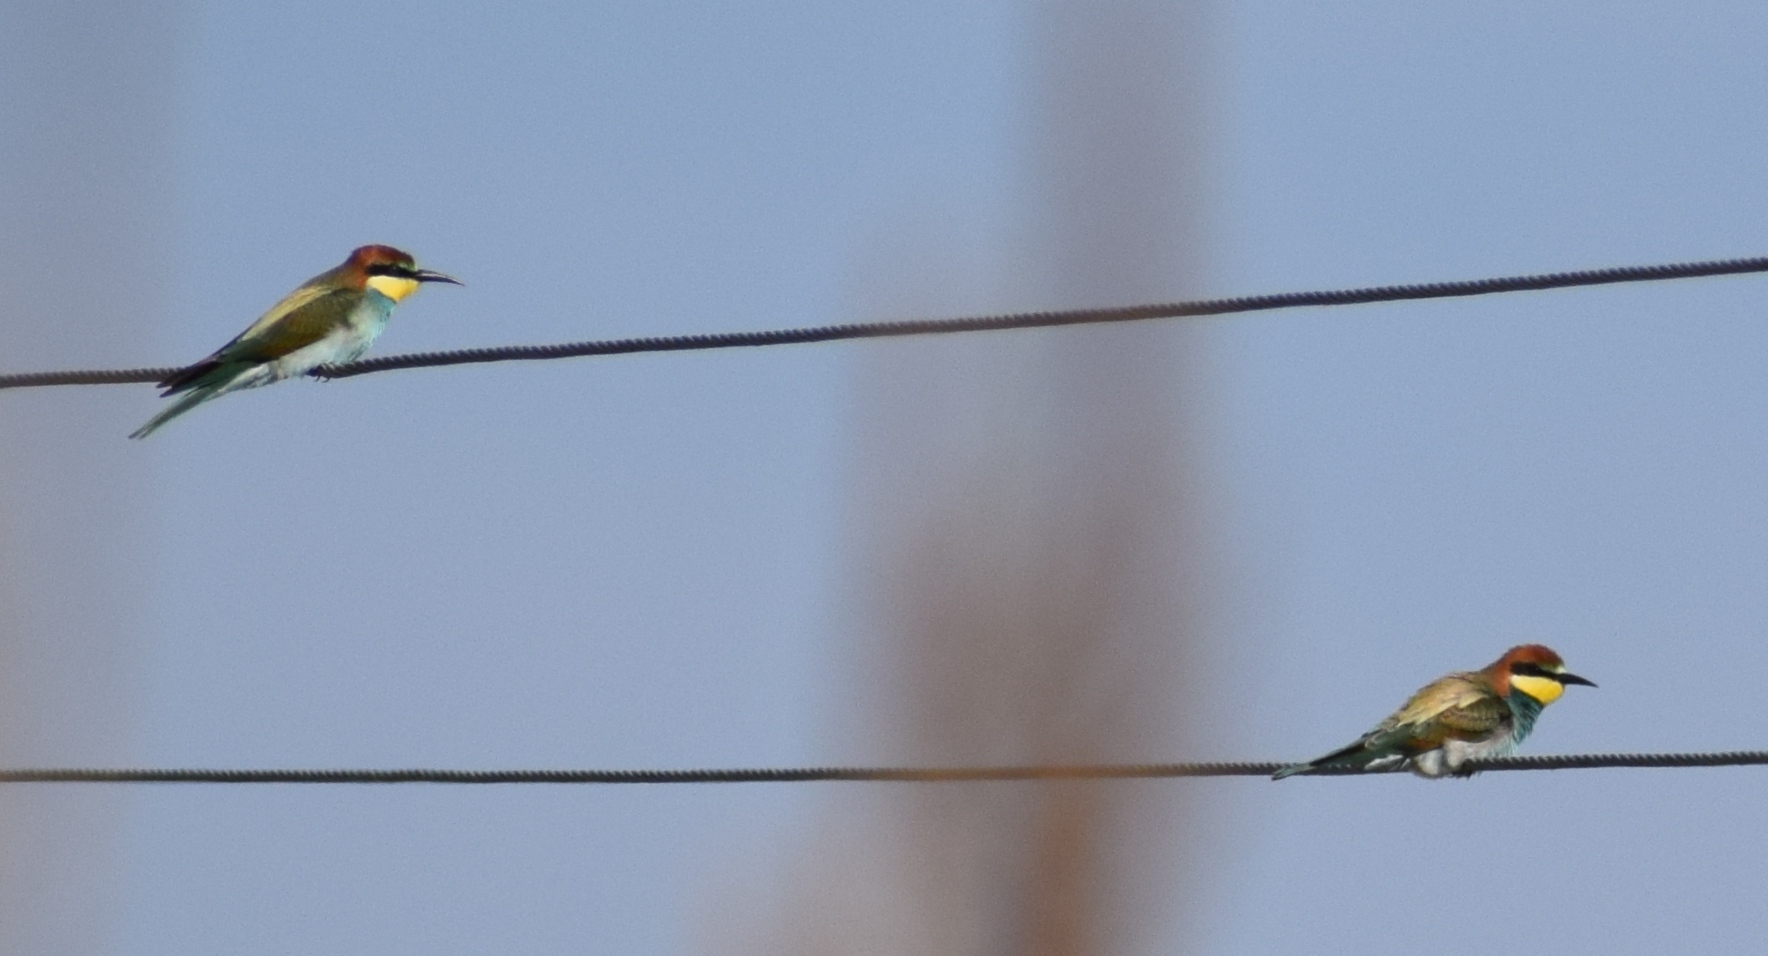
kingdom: Animalia
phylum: Chordata
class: Aves
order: Coraciiformes
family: Meropidae
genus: Merops
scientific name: Merops apiaster
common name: European bee-eater
